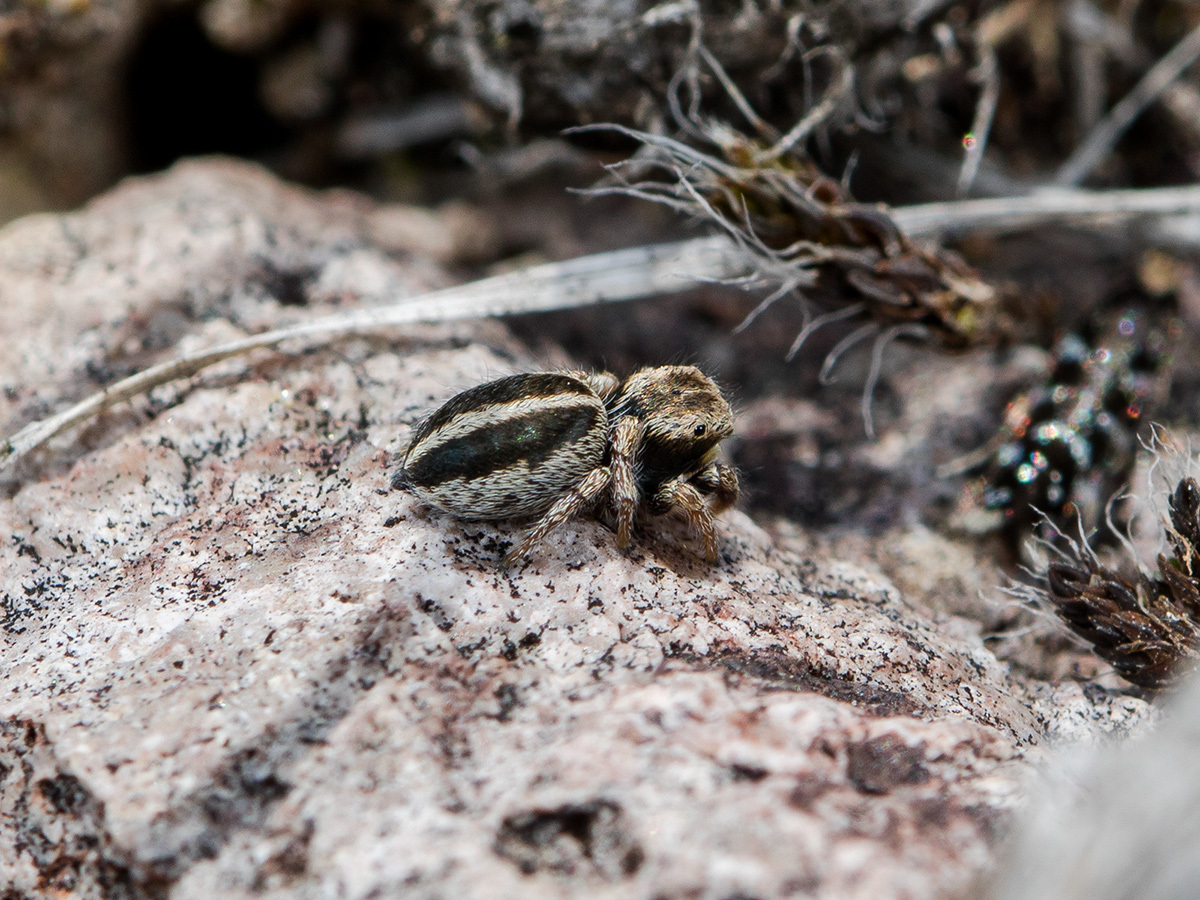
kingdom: Animalia
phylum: Arthropoda
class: Arachnida
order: Araneae
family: Salticidae
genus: Pellenes
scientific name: Pellenes epularis
